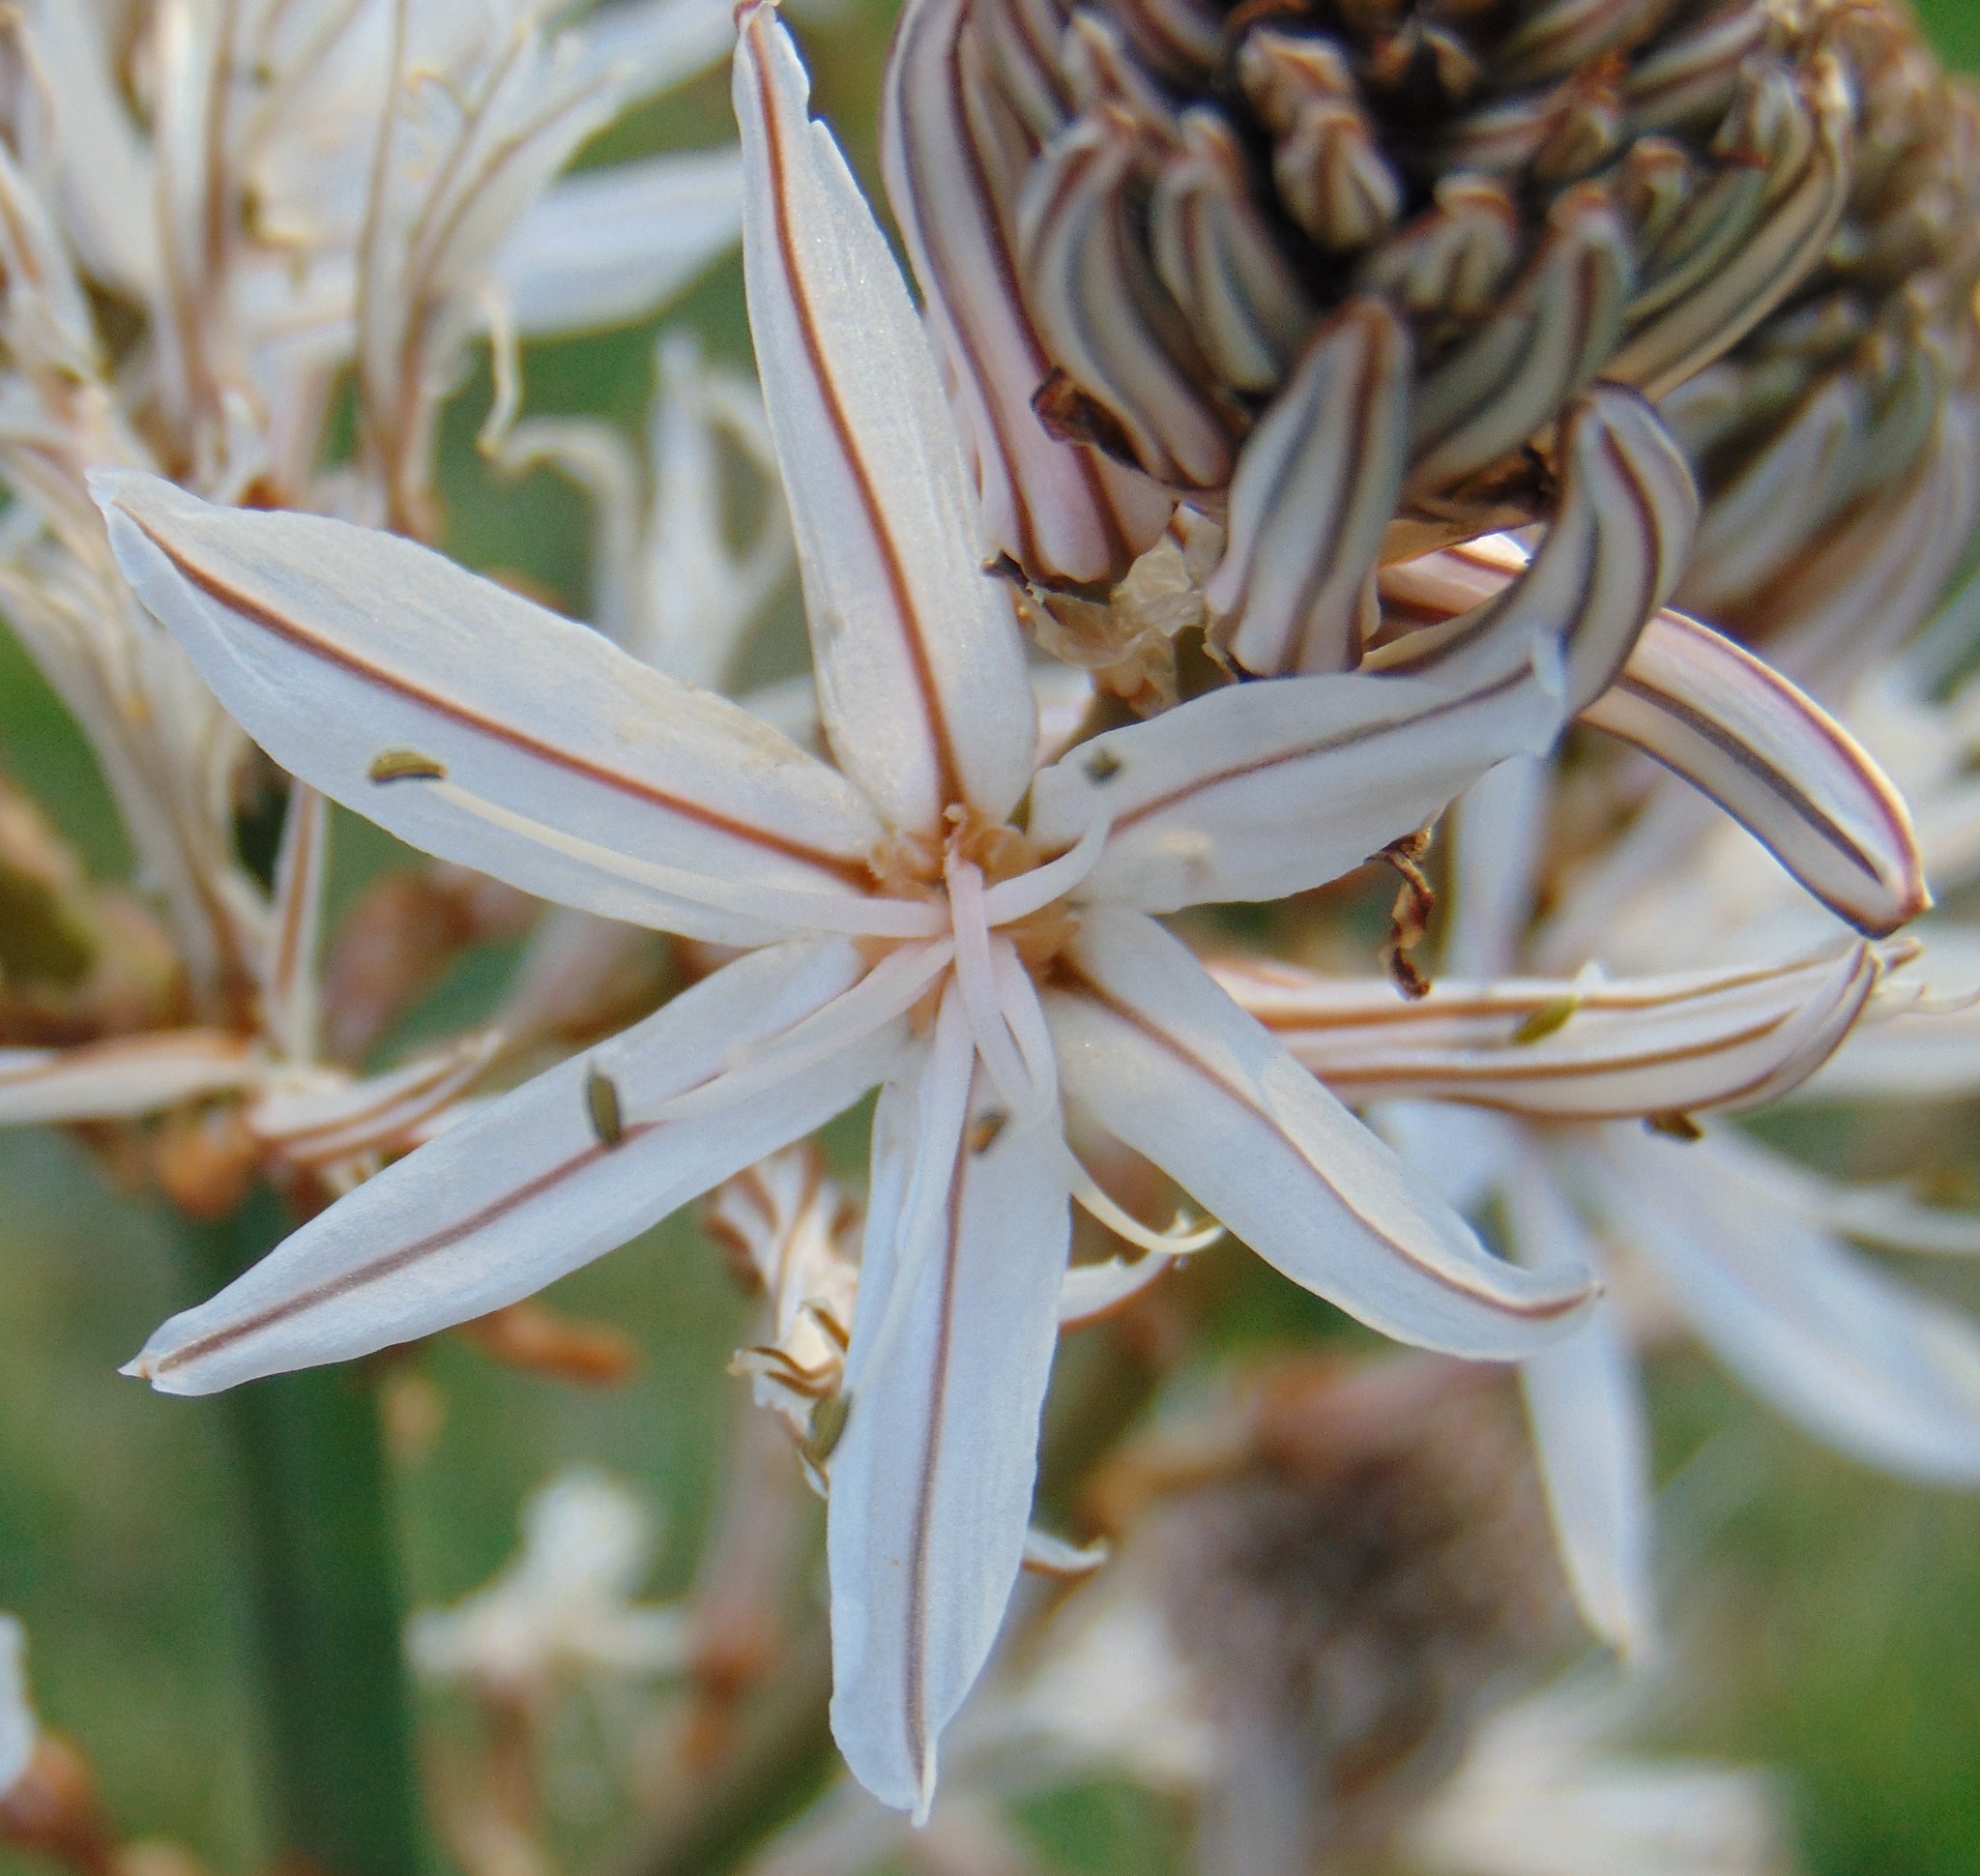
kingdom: Plantae
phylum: Tracheophyta
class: Liliopsida
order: Asparagales
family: Asphodelaceae
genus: Asphodelus
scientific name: Asphodelus ramosus
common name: Silverrod
